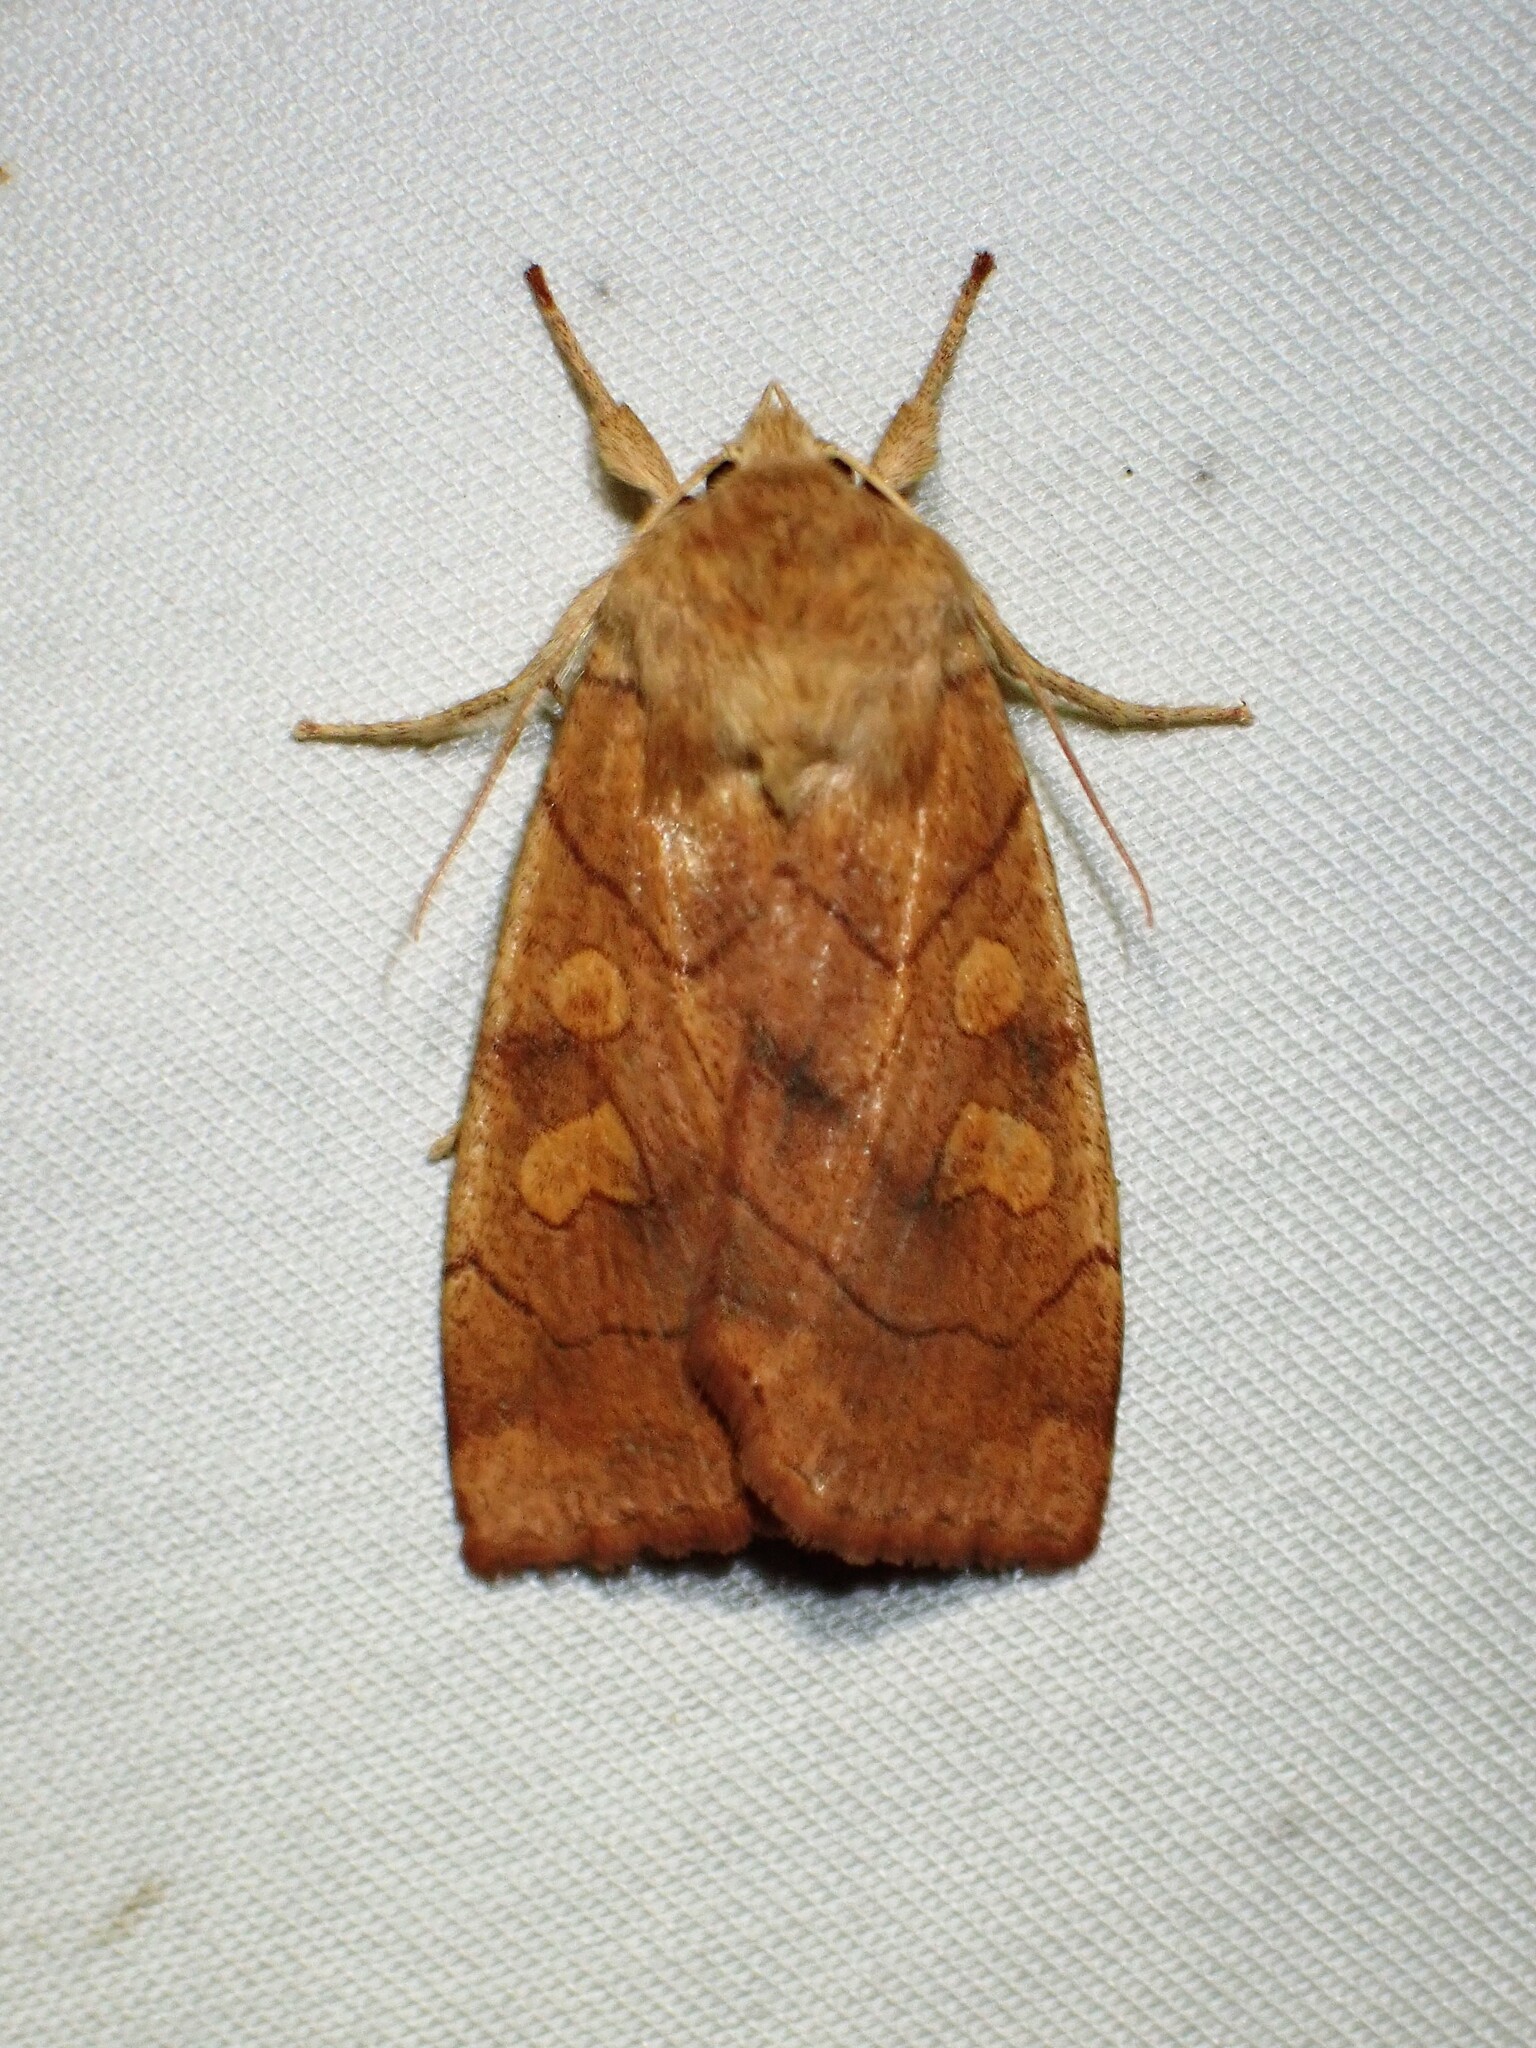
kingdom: Animalia
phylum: Arthropoda
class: Insecta
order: Lepidoptera
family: Noctuidae
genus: Enargia
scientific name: Enargia decolor
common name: Aspen twoleaf tier moth
